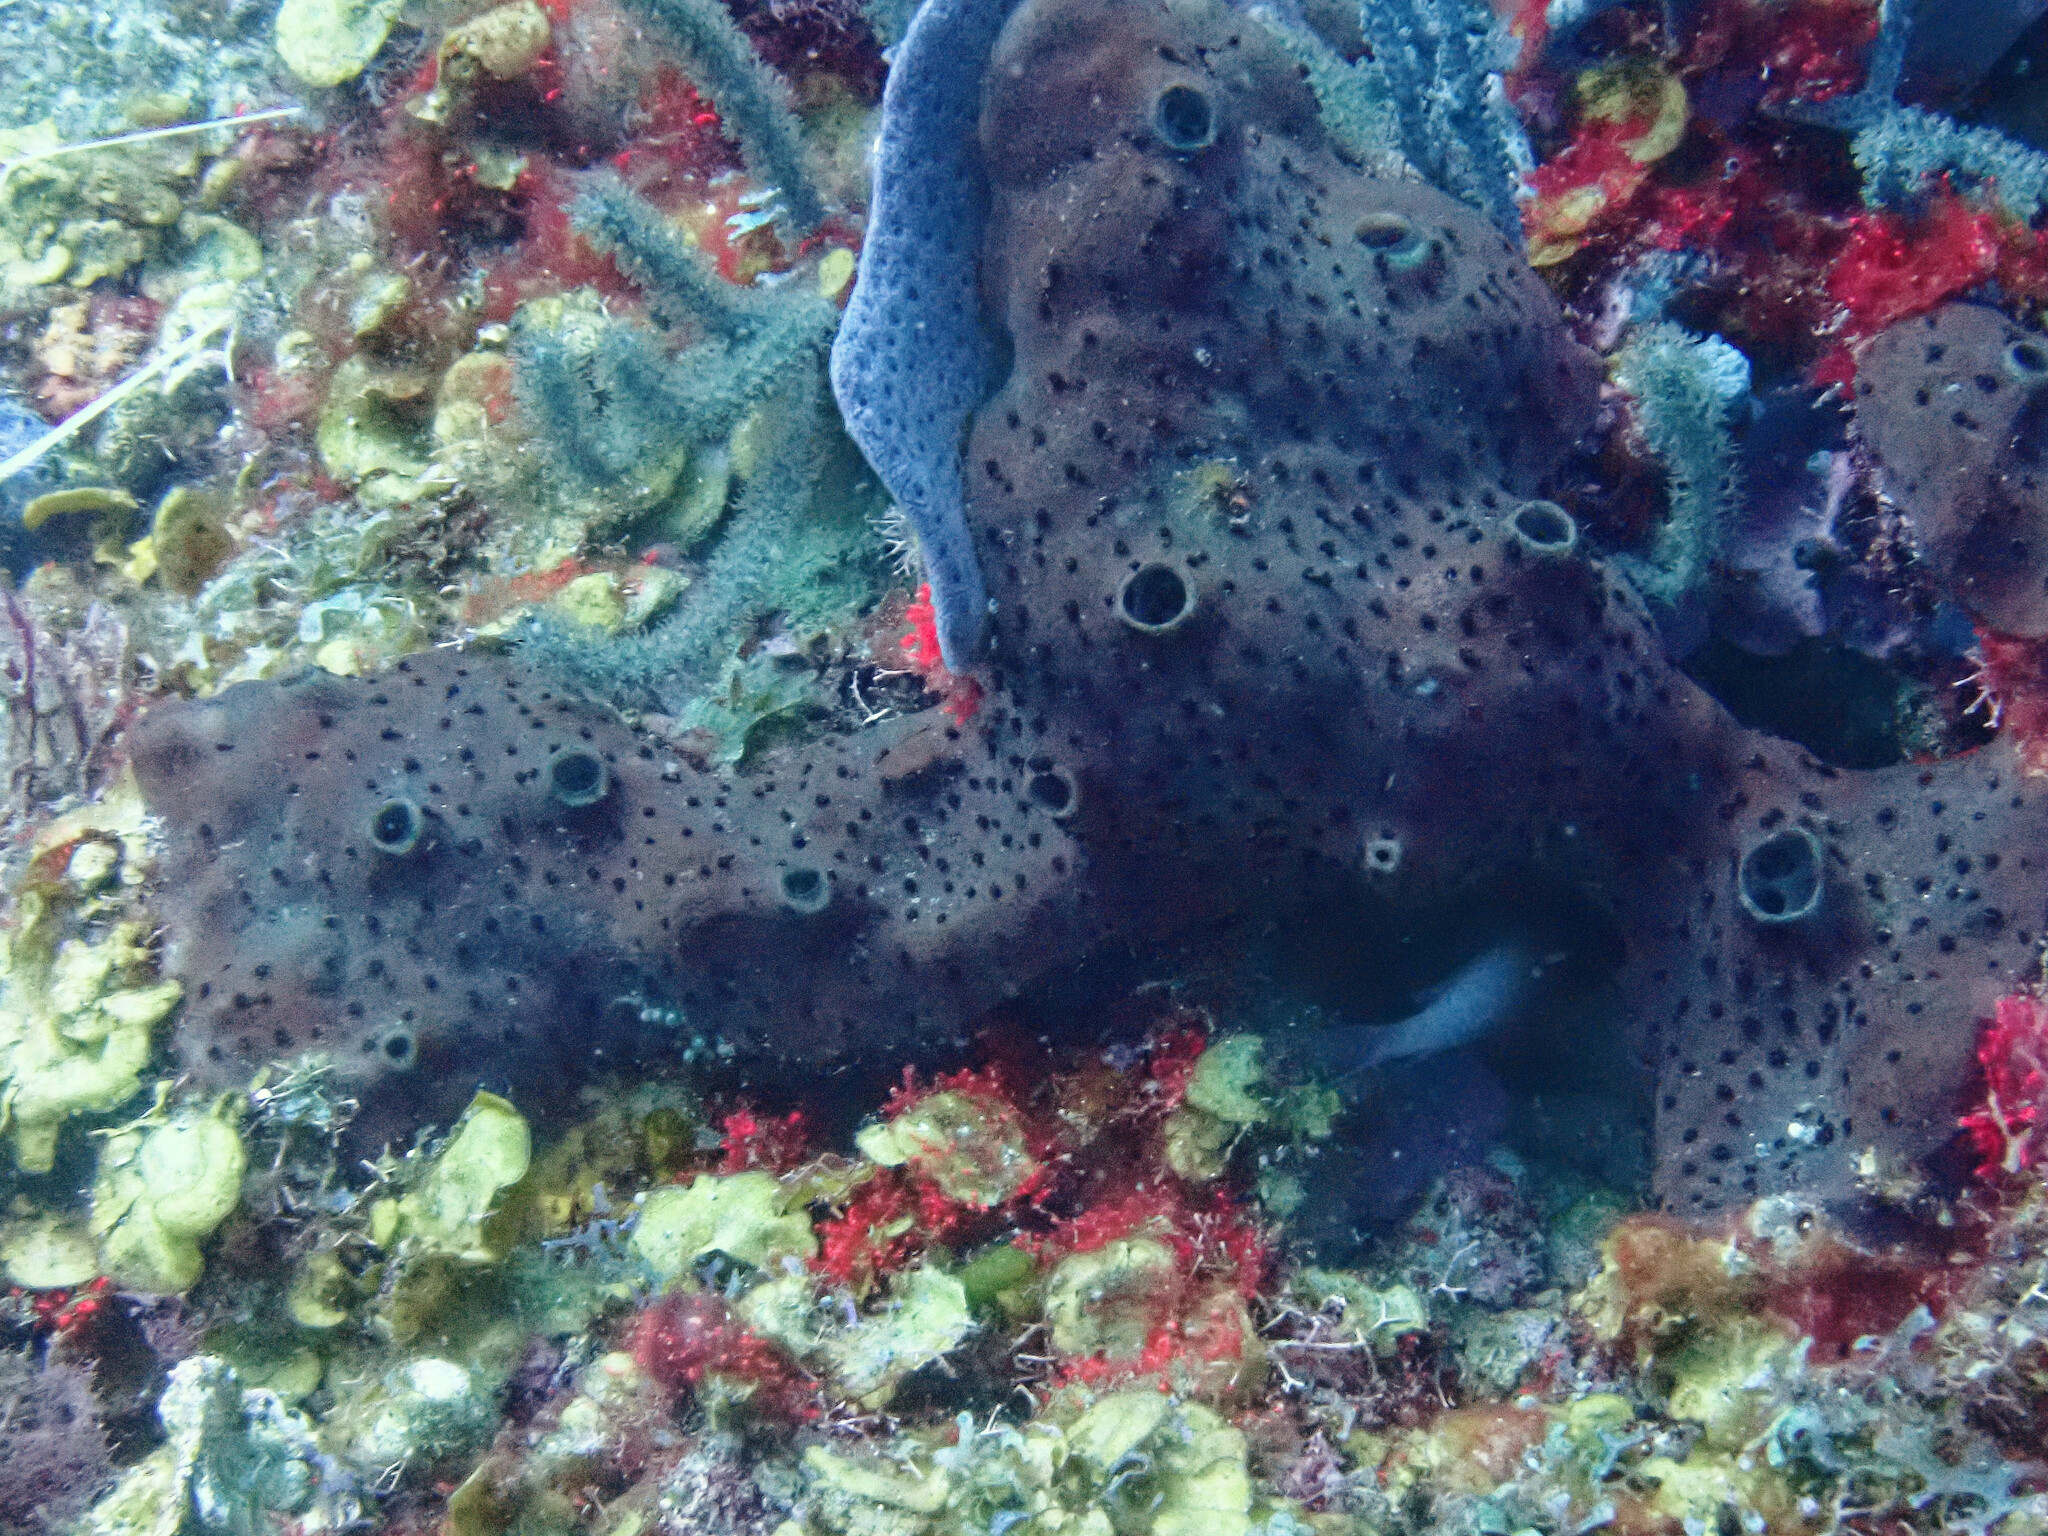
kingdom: Animalia
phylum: Porifera
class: Demospongiae
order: Scopalinida
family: Scopalinidae
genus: Svenzea
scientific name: Svenzea zeai
